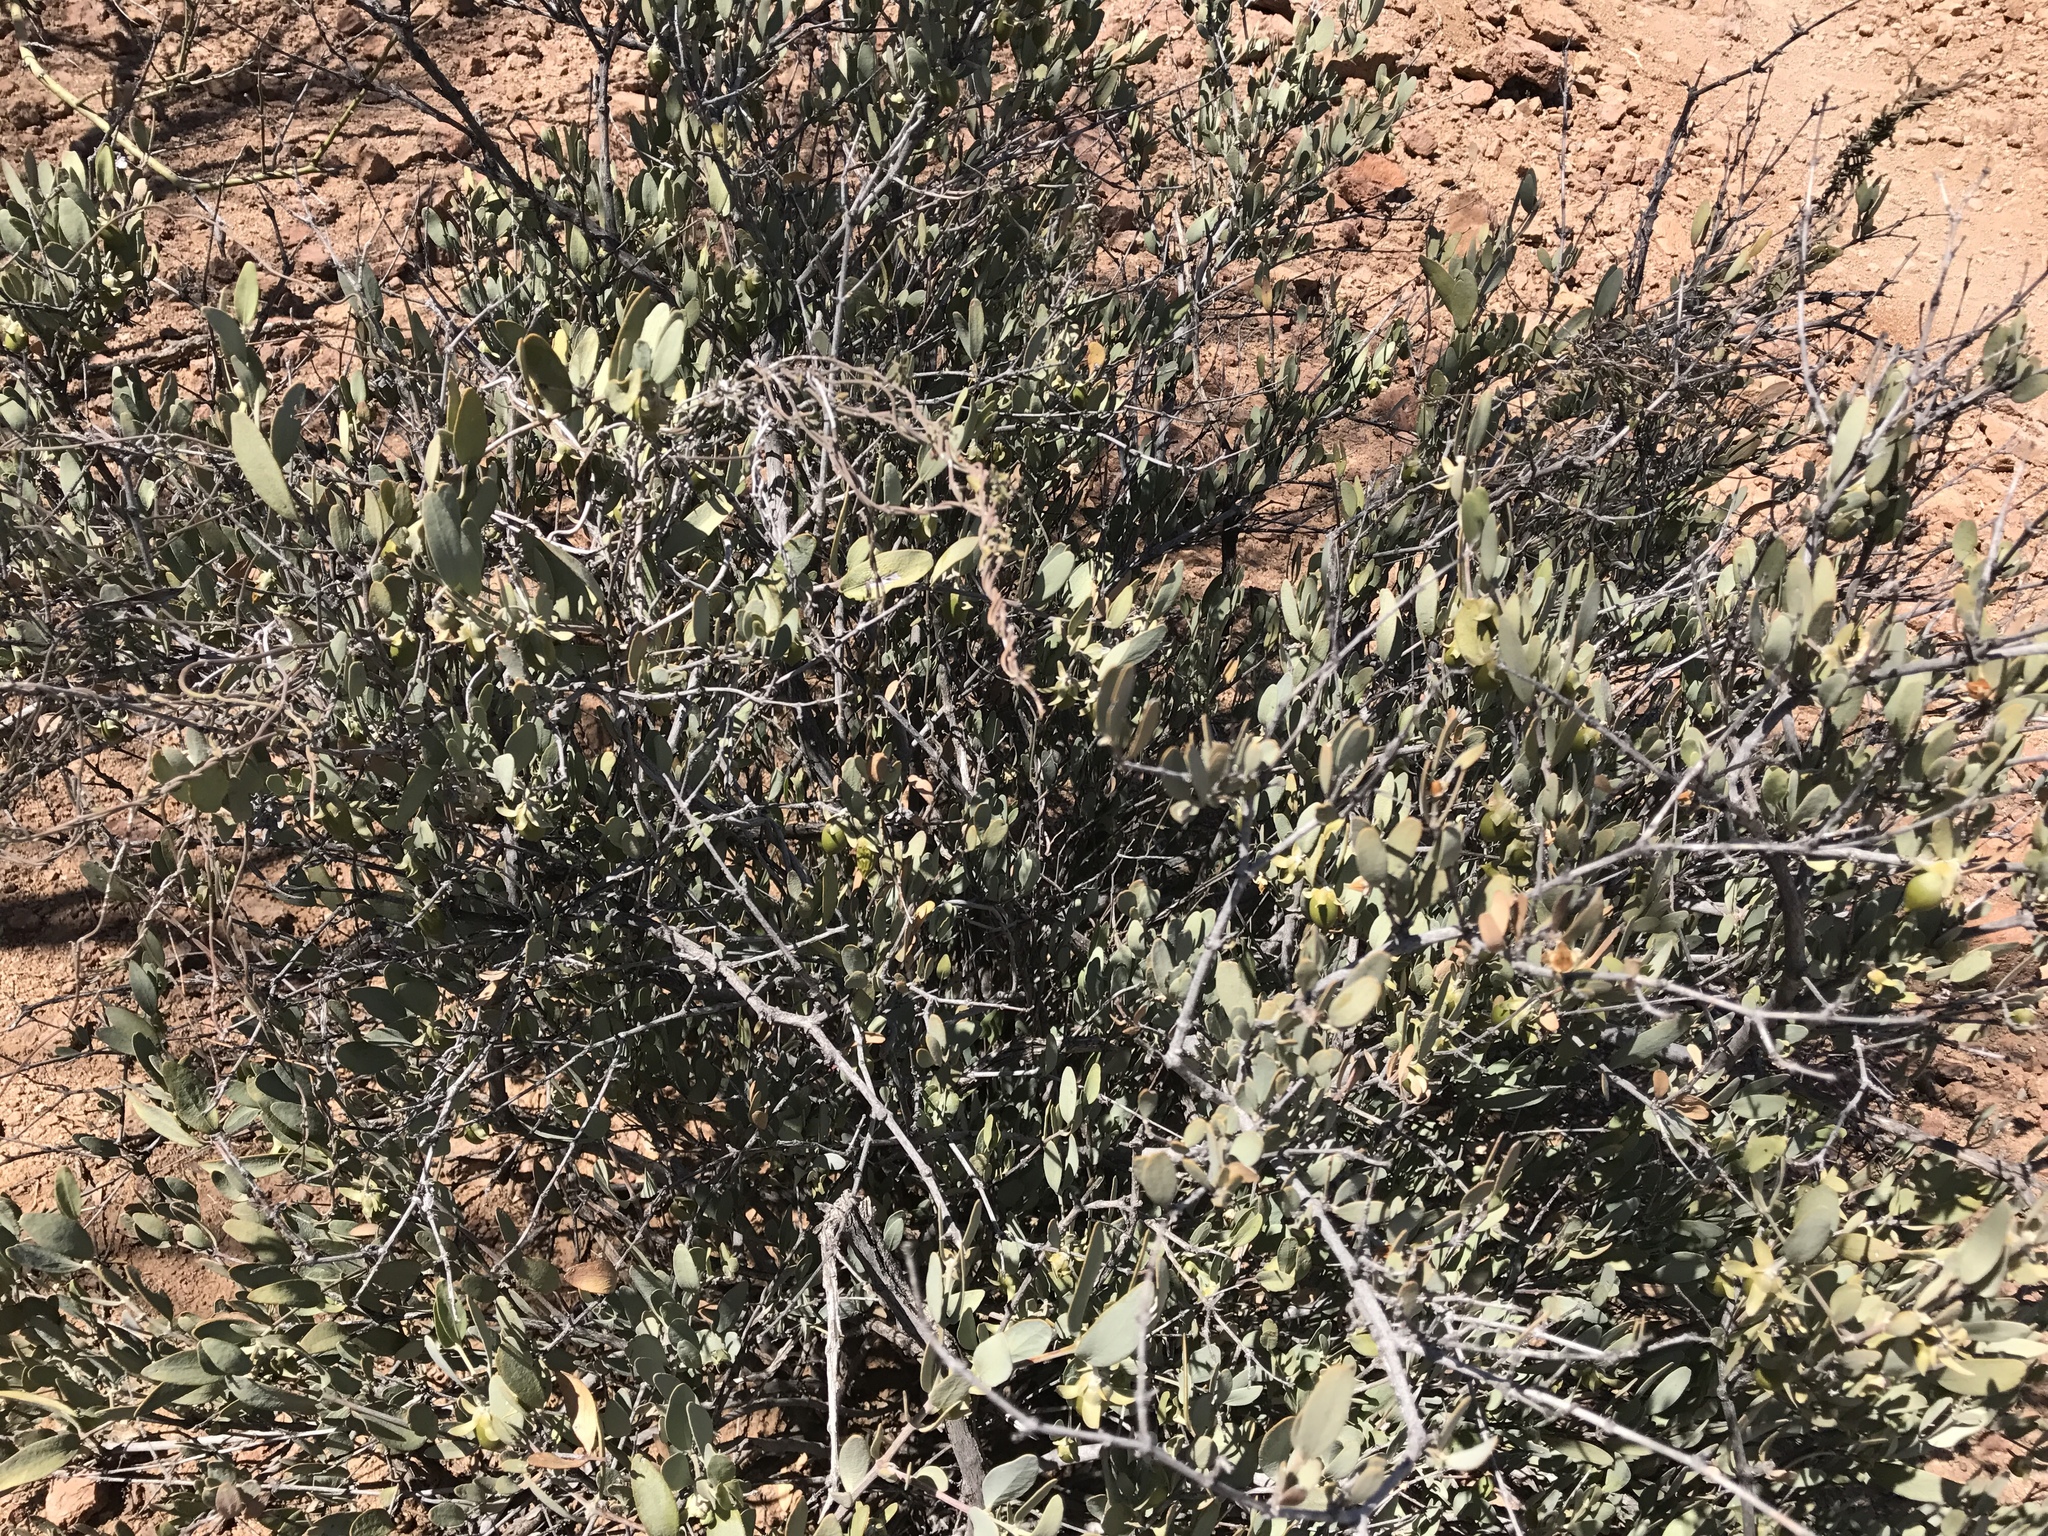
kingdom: Plantae
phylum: Tracheophyta
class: Magnoliopsida
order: Caryophyllales
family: Simmondsiaceae
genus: Simmondsia
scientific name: Simmondsia chinensis
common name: Jojoba
